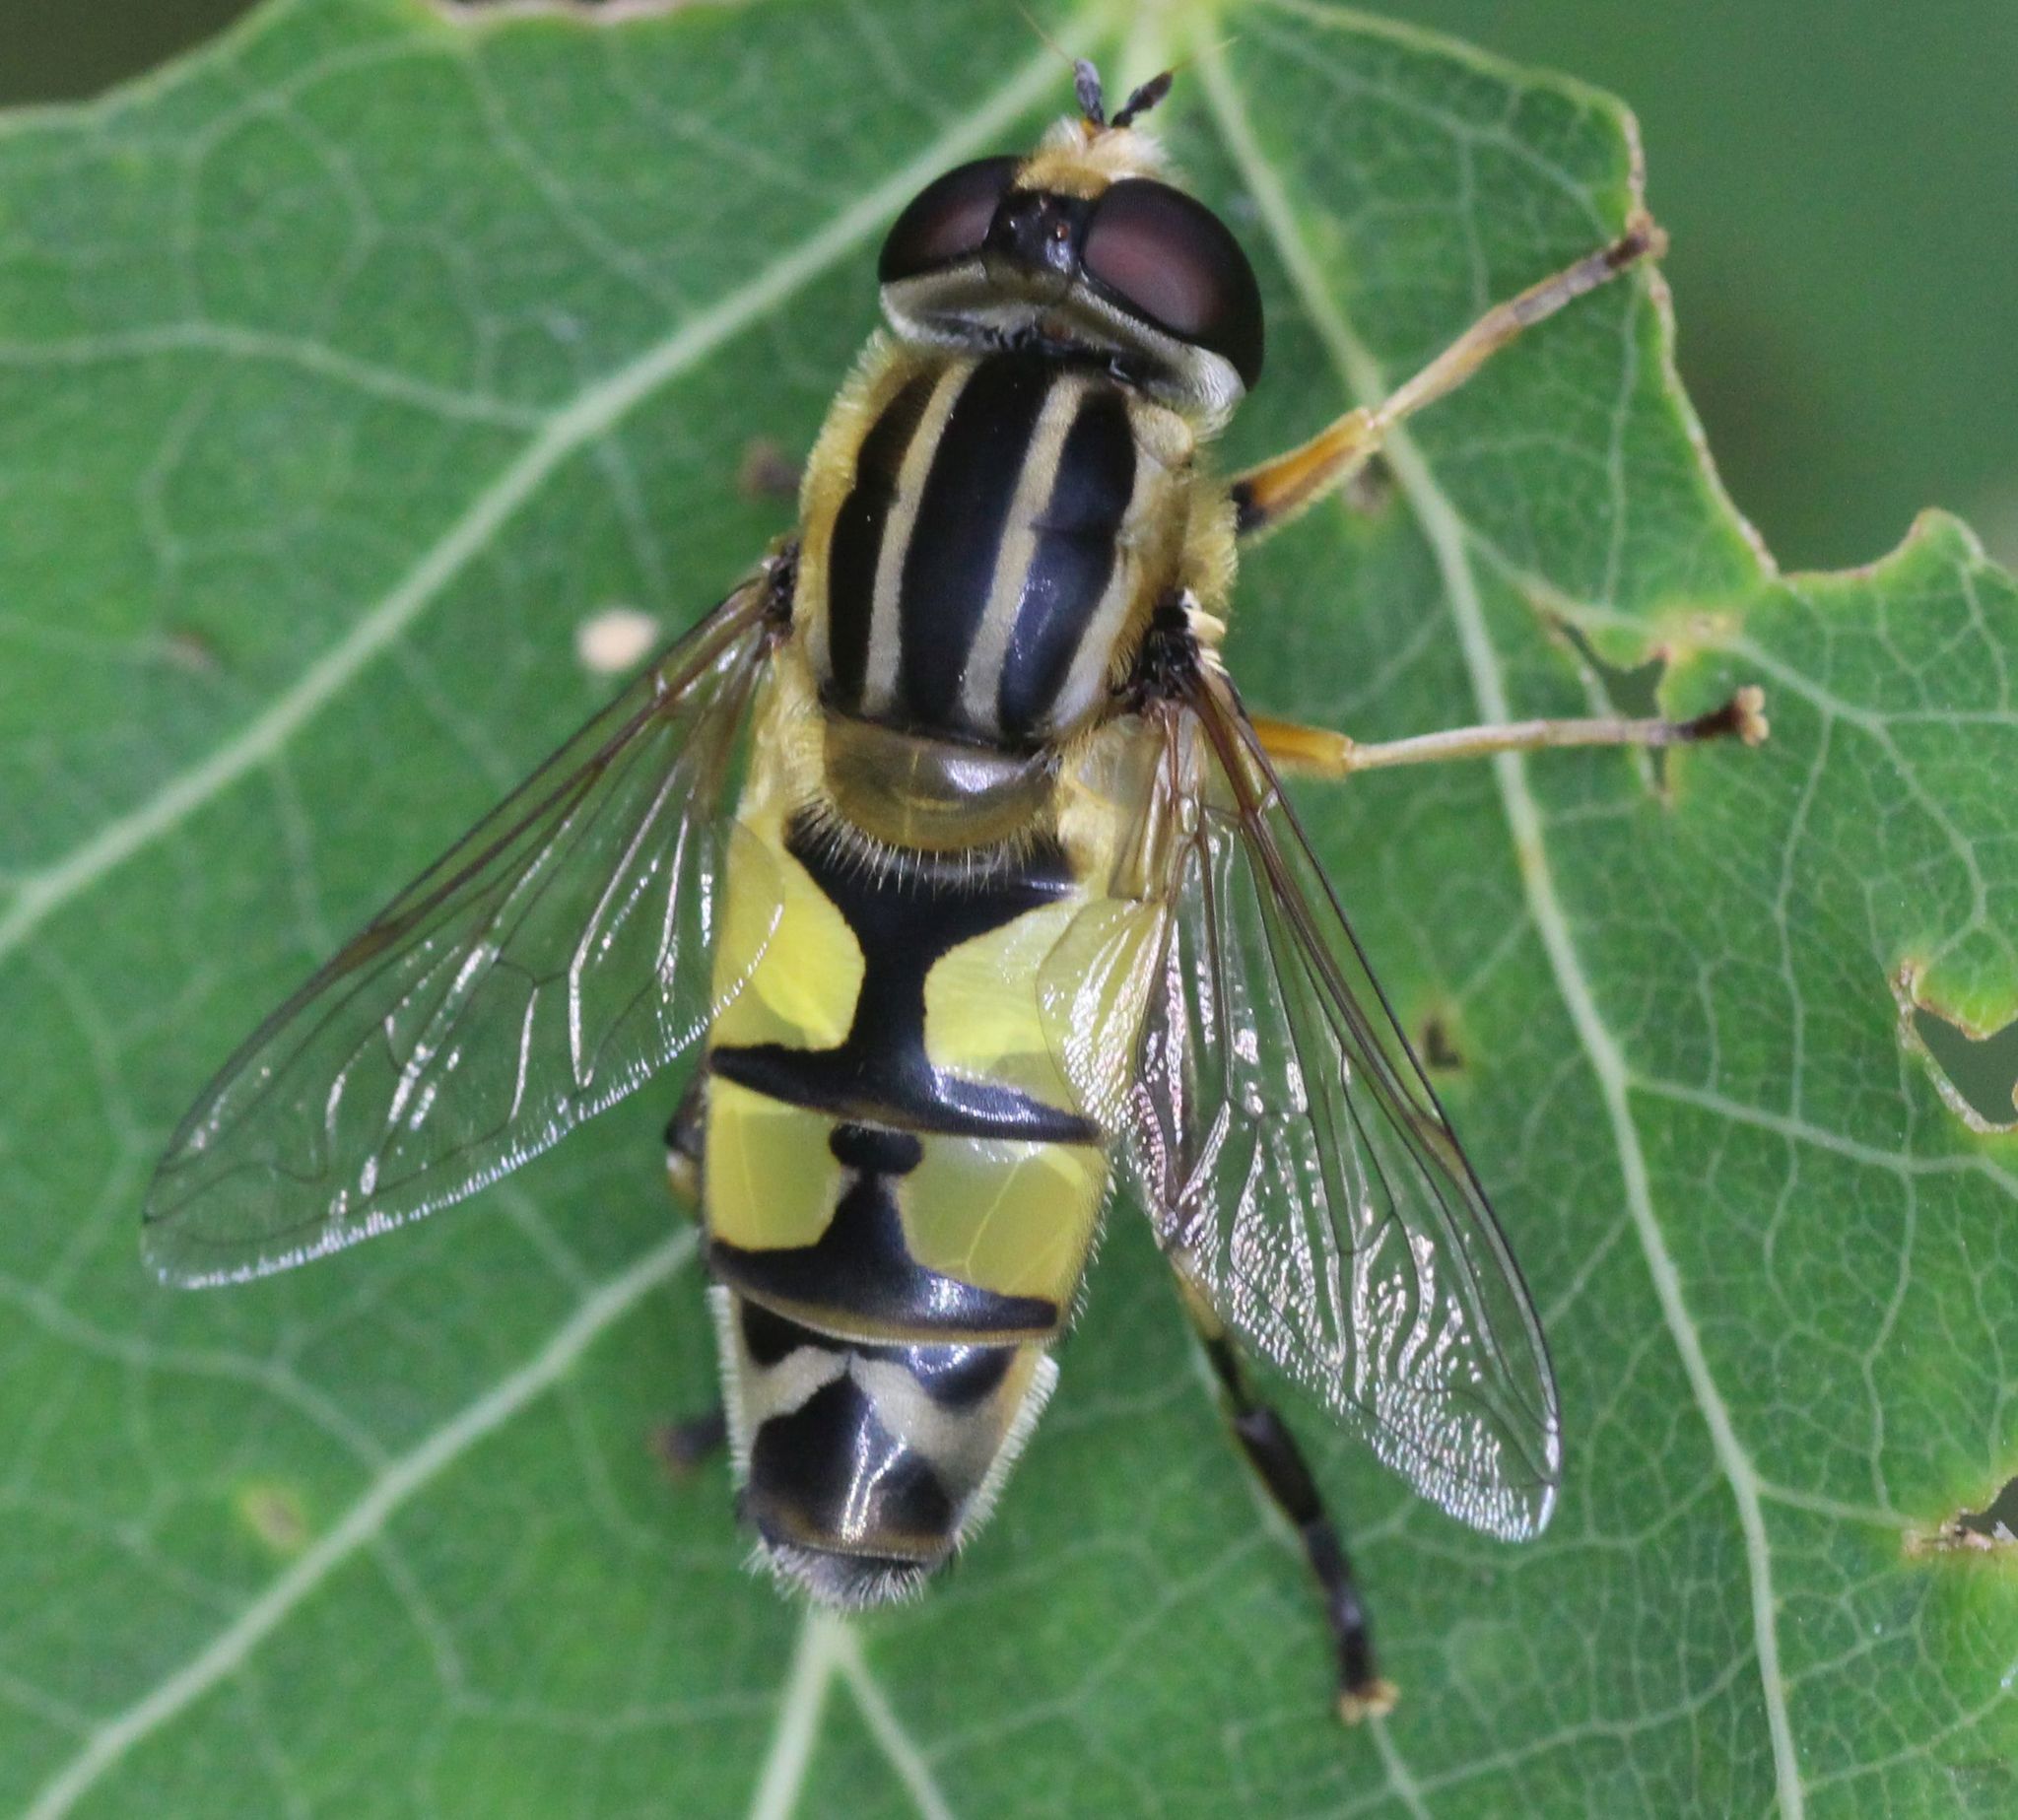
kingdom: Animalia
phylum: Arthropoda
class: Insecta
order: Diptera
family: Syrphidae
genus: Helophilus
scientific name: Helophilus trivittatus
